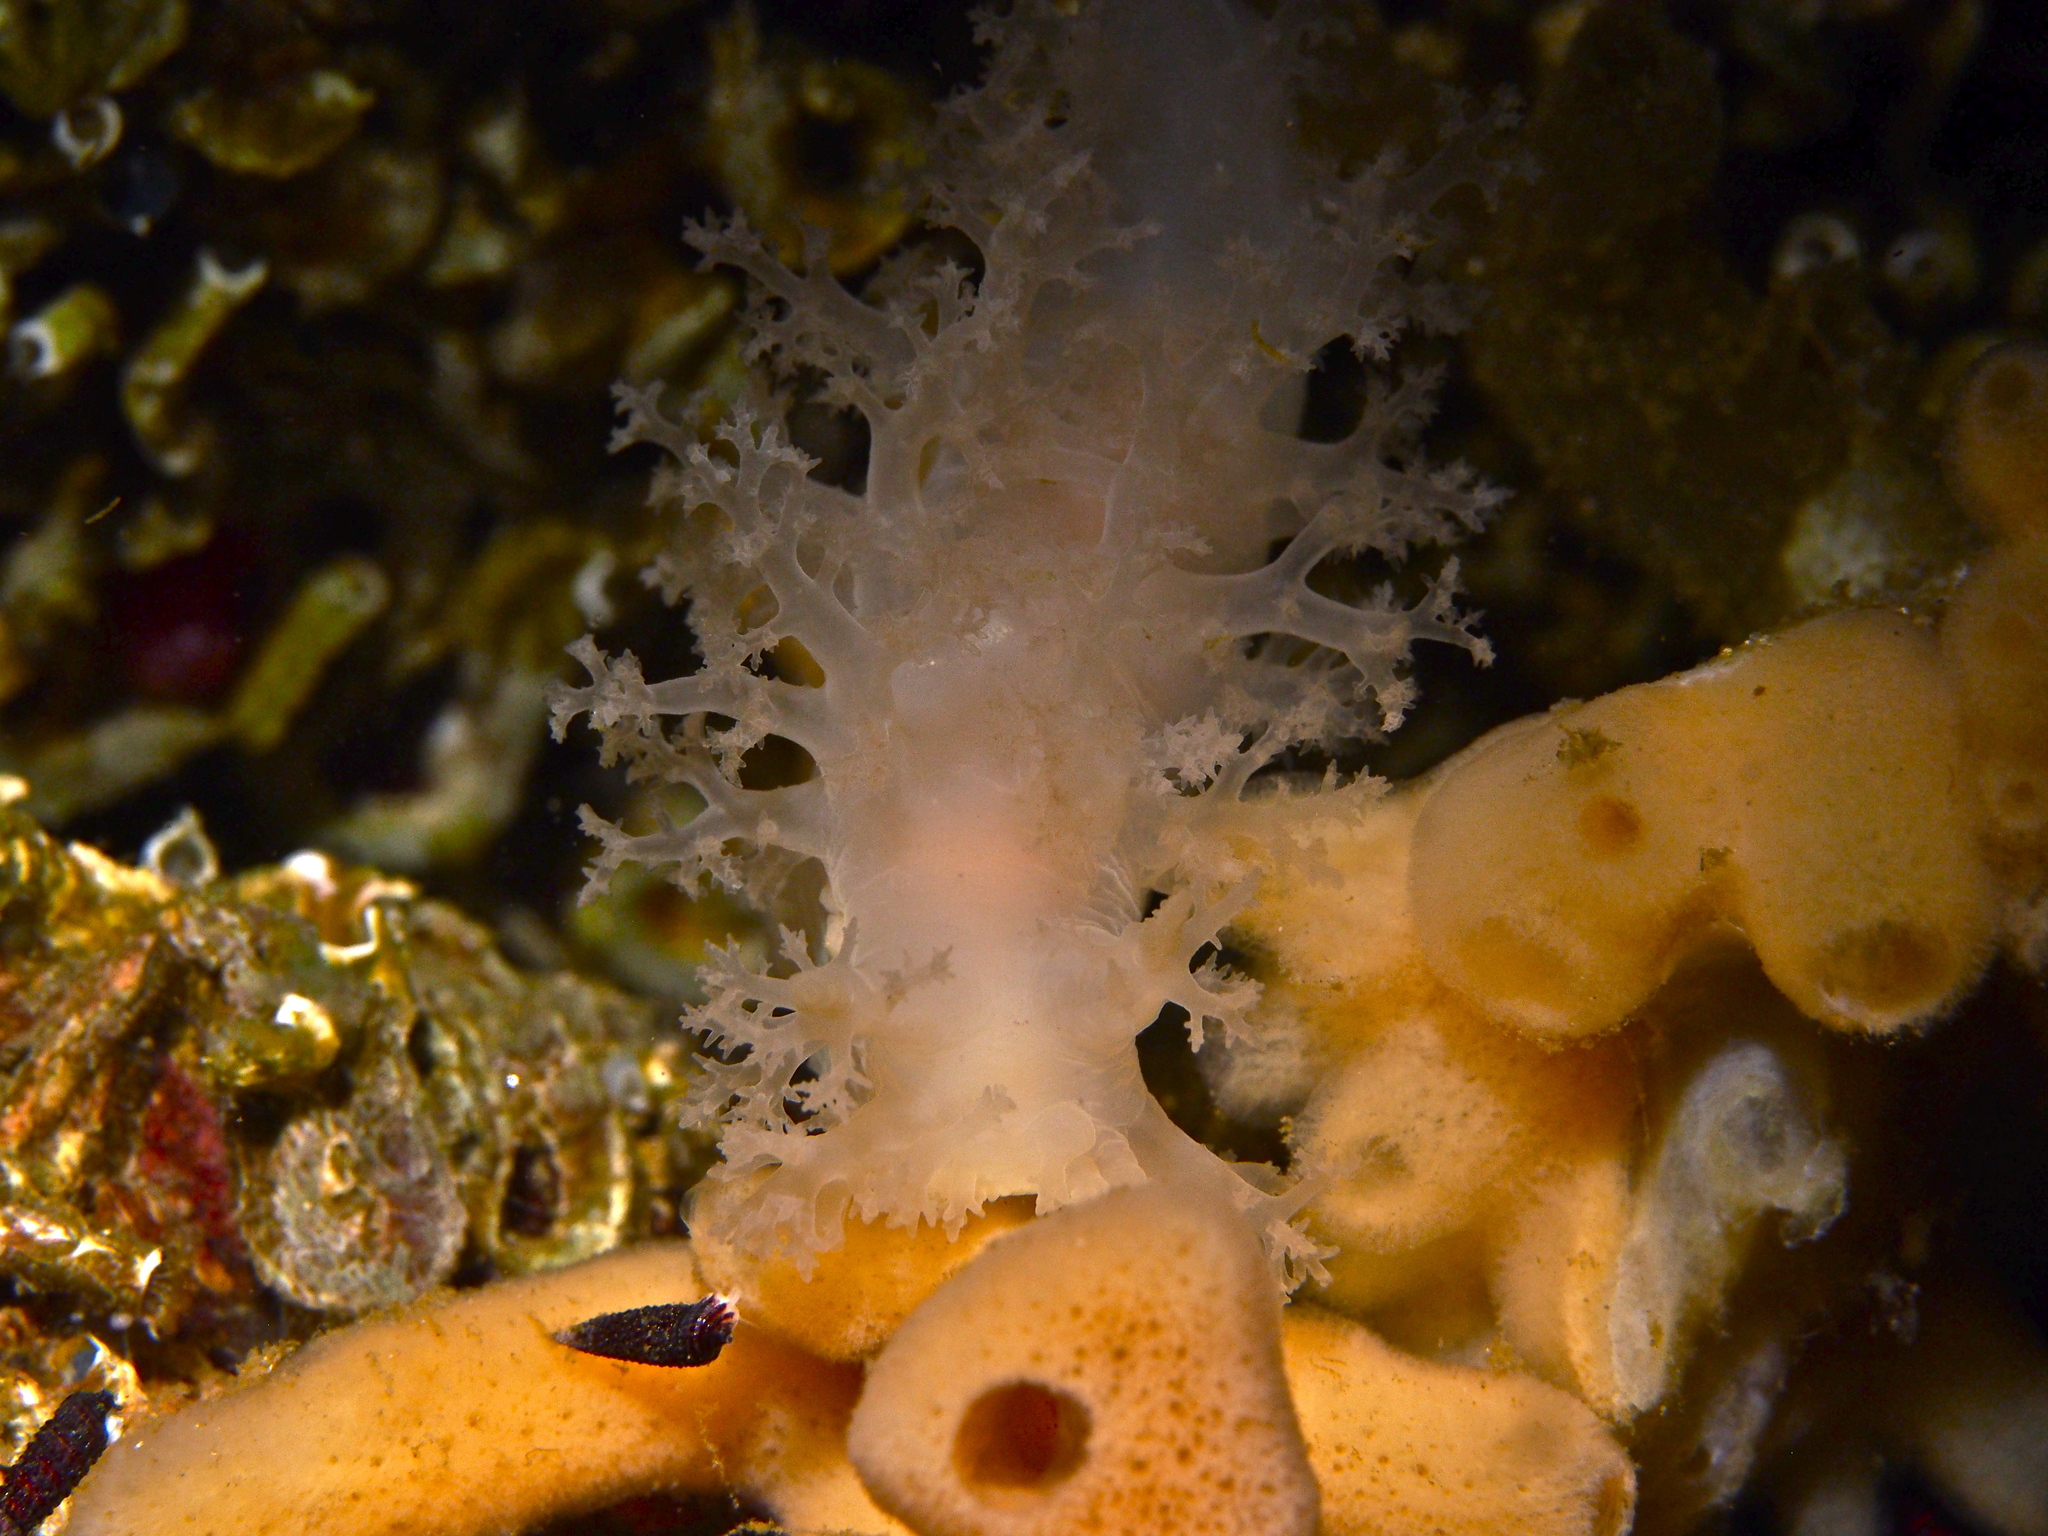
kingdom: Animalia
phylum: Mollusca
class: Gastropoda
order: Nudibranchia
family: Dendronotidae
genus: Dendronotus
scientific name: Dendronotus lacteus
